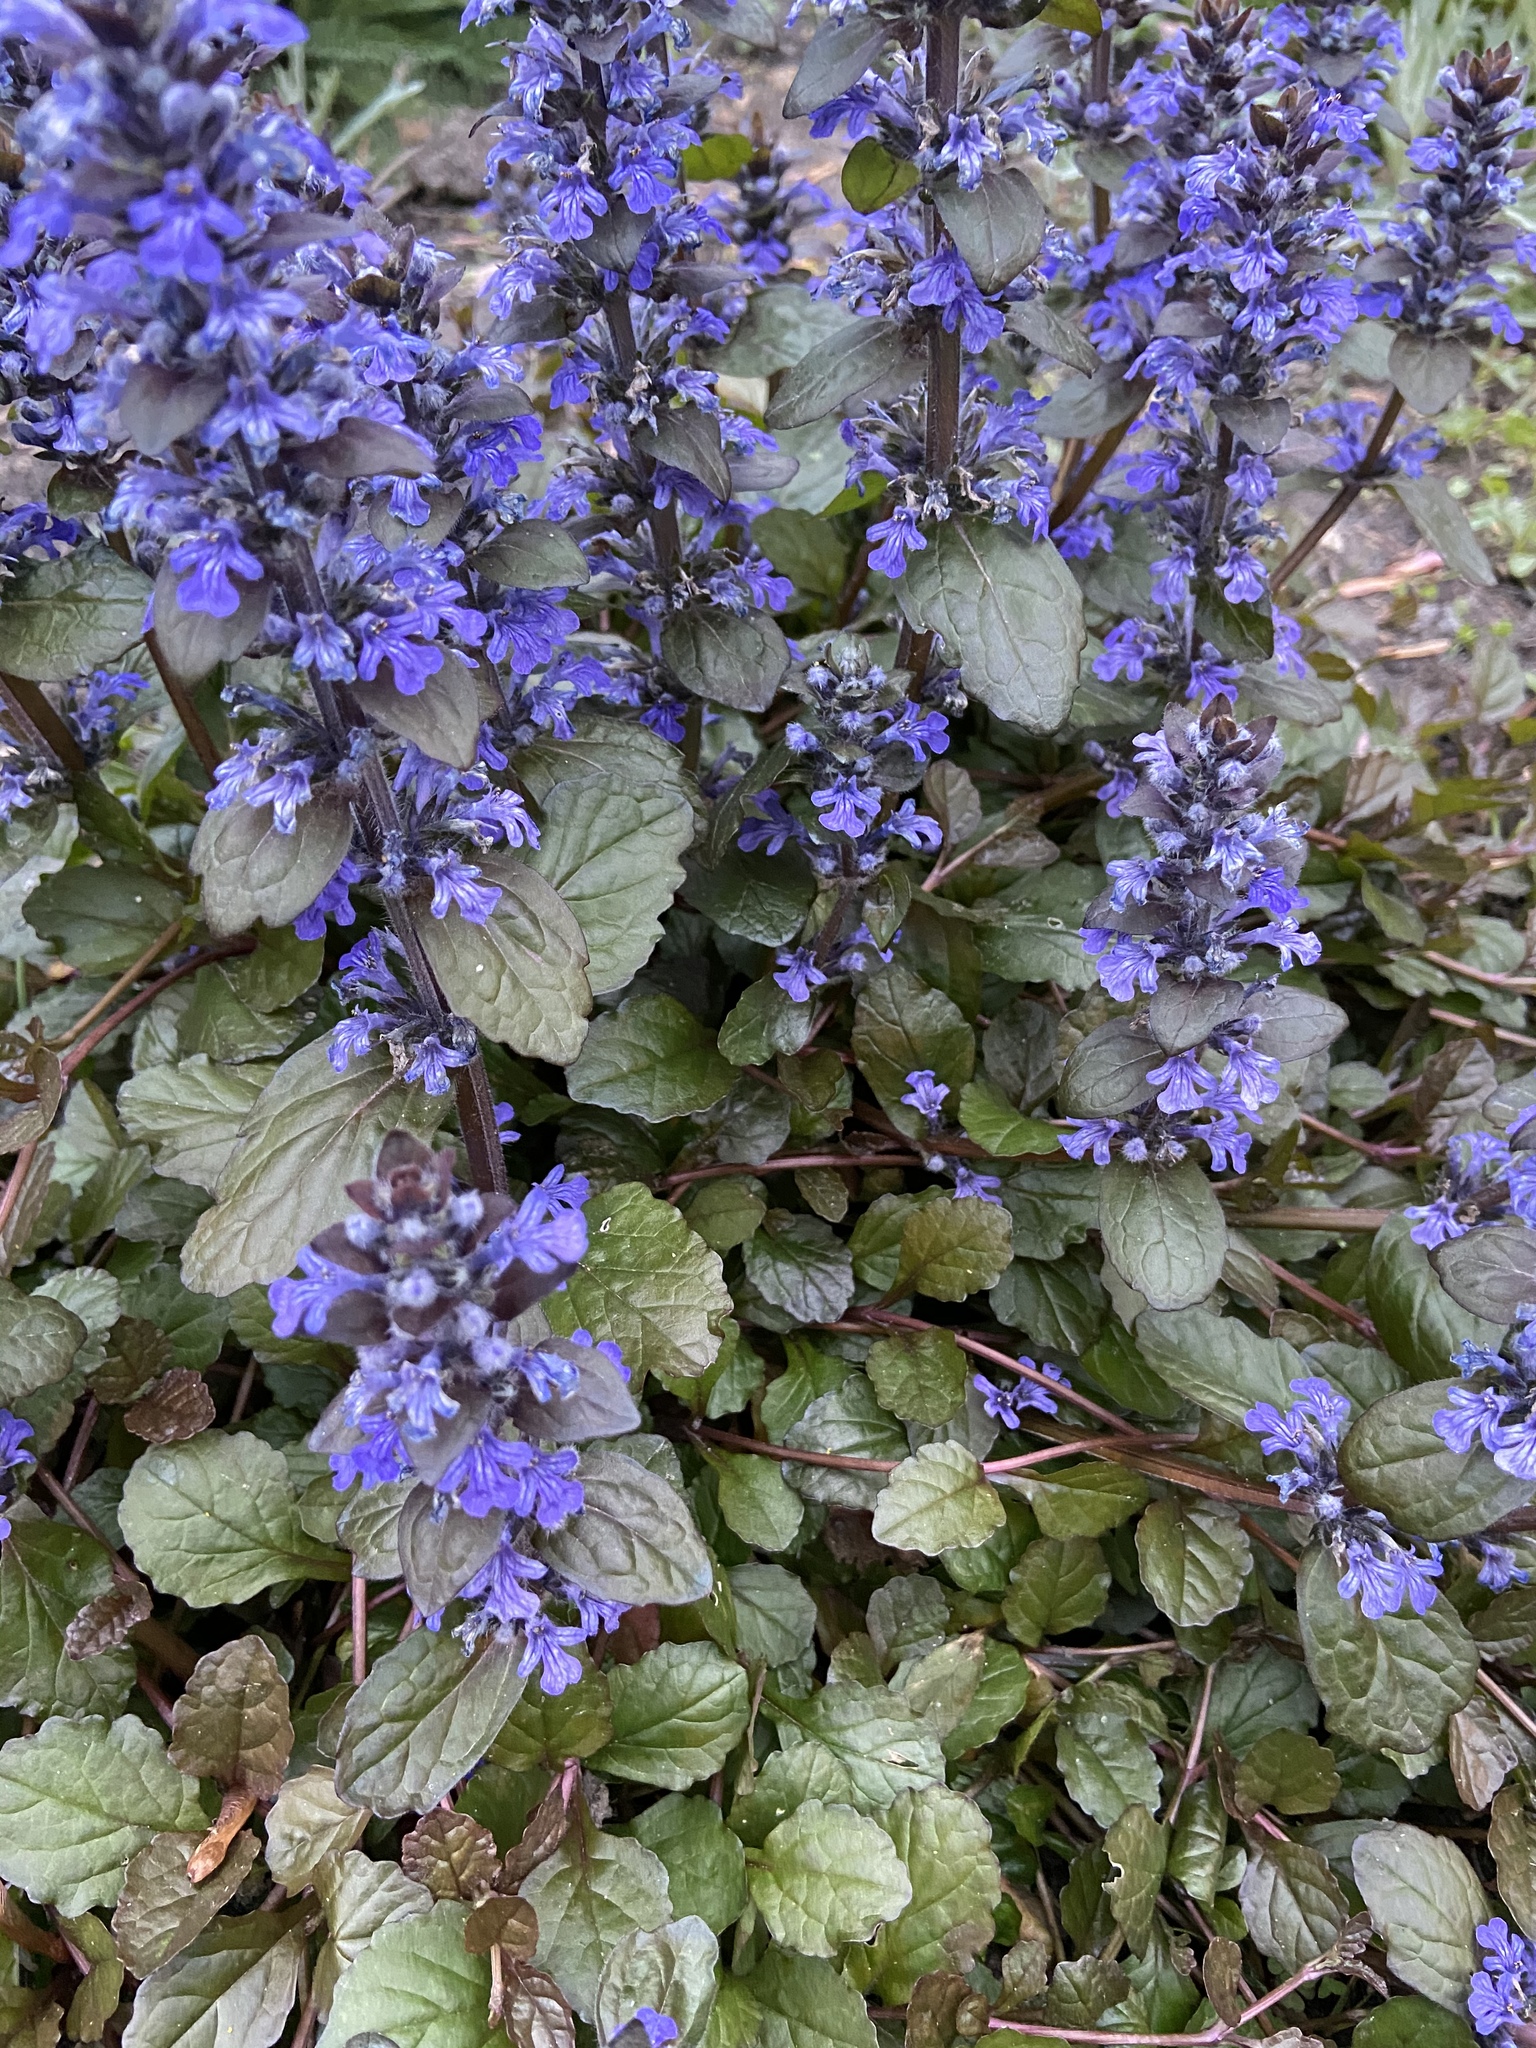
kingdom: Plantae
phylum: Tracheophyta
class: Magnoliopsida
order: Lamiales
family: Lamiaceae
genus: Ajuga
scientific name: Ajuga reptans
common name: Bugle
